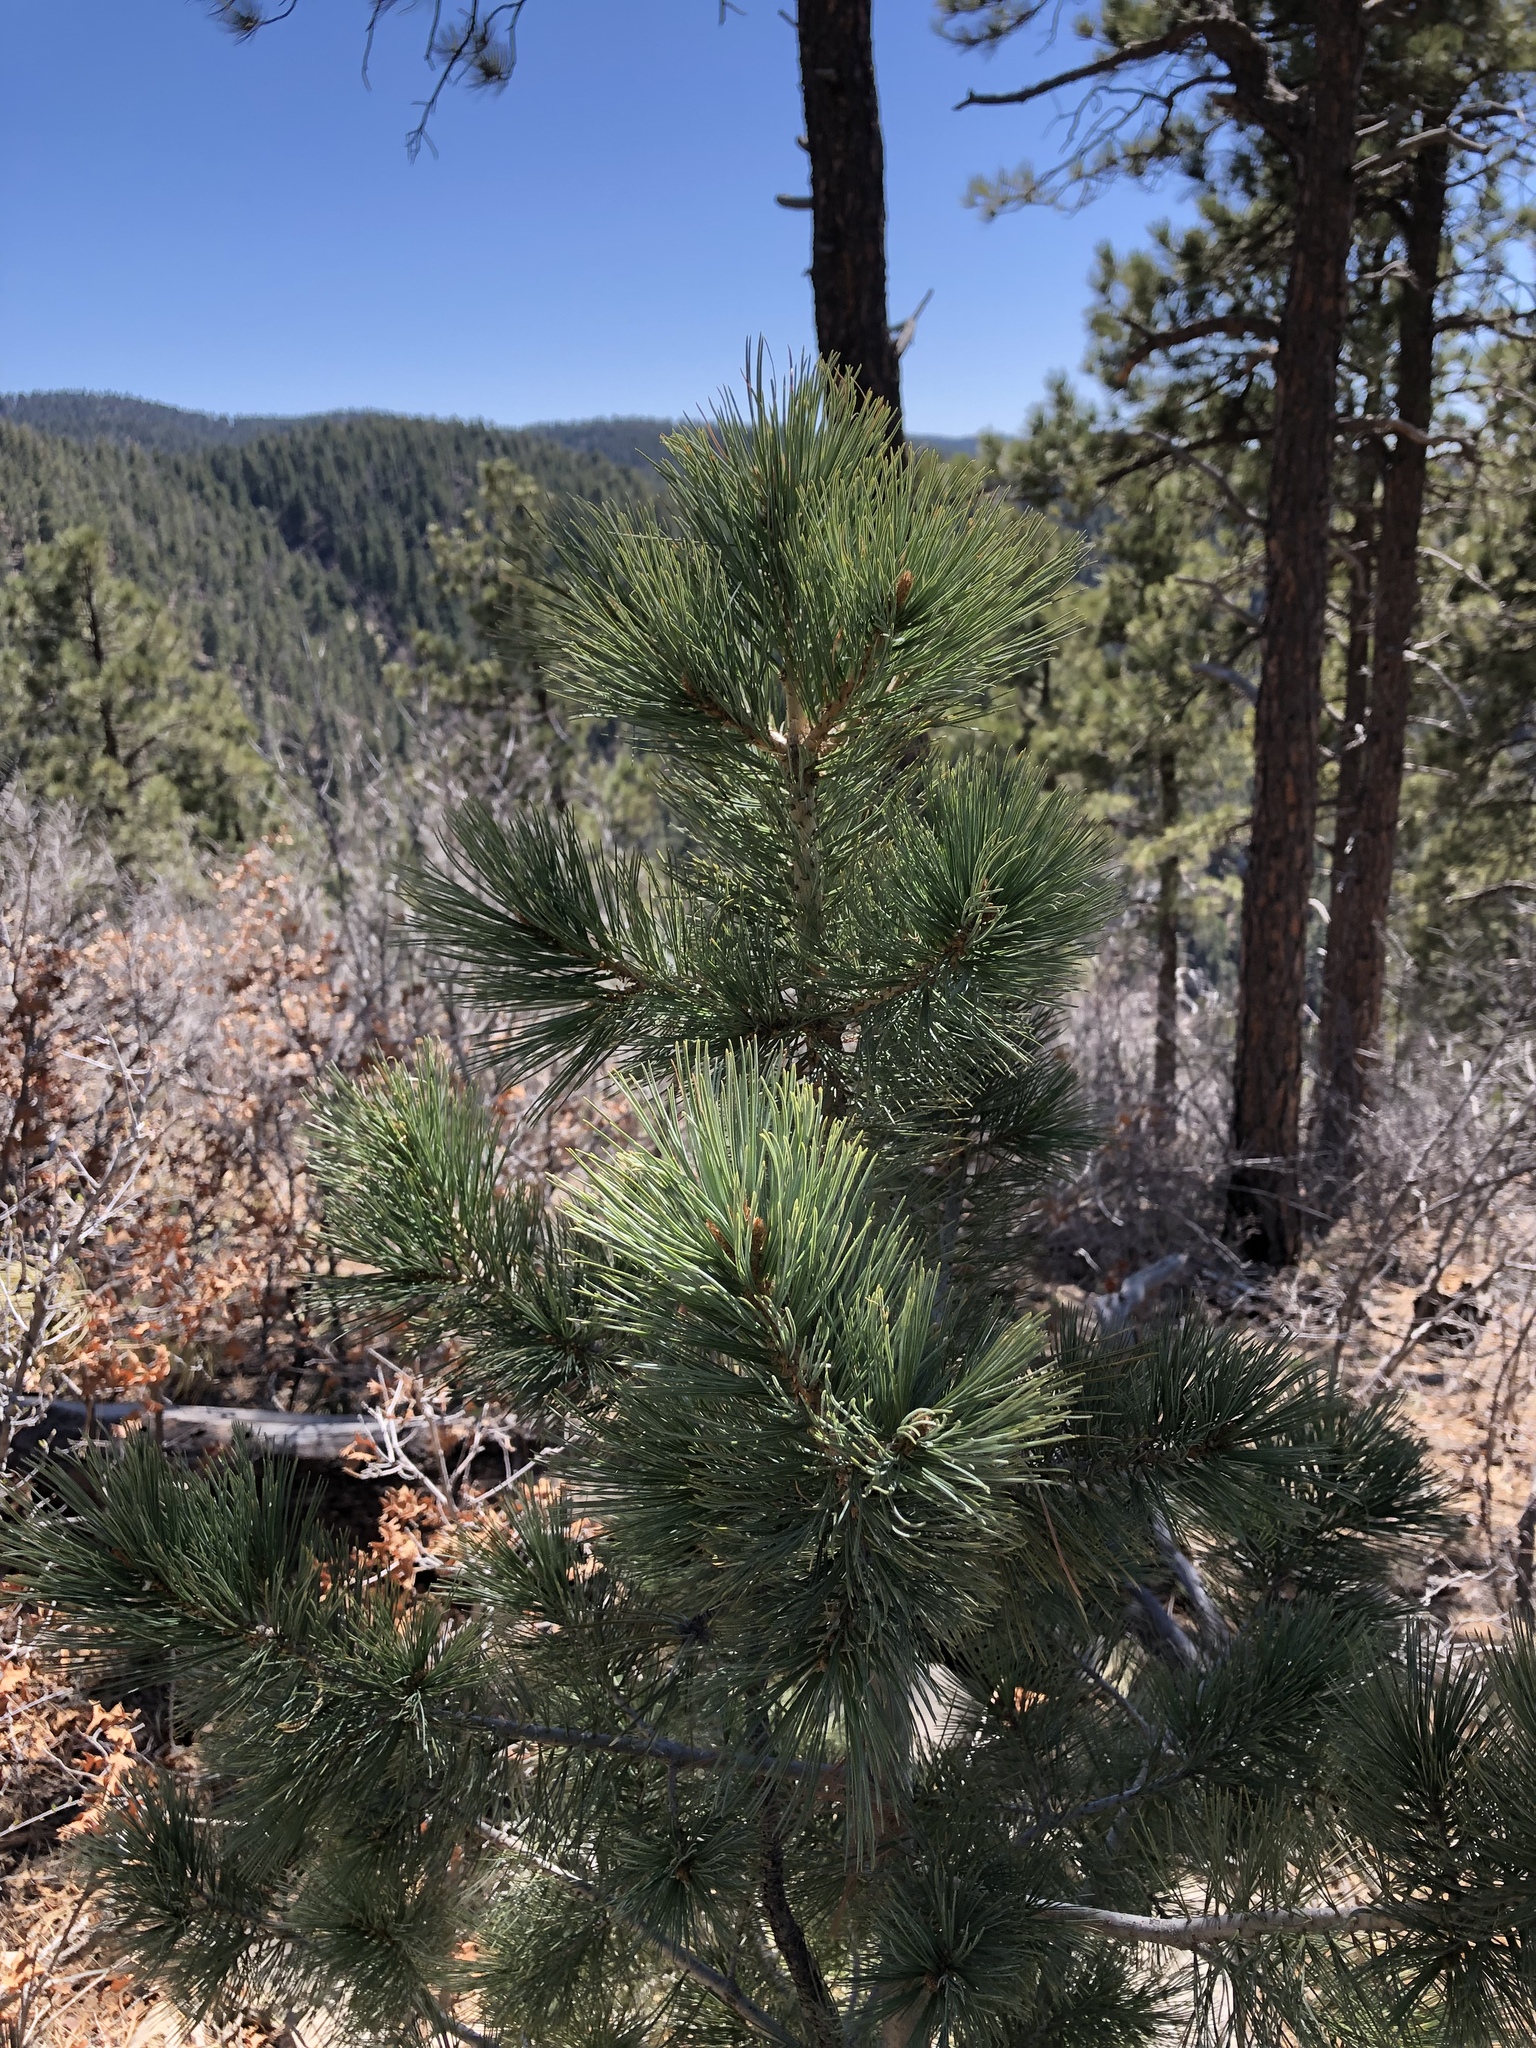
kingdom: Plantae
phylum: Tracheophyta
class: Pinopsida
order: Pinales
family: Pinaceae
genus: Pinus
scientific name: Pinus strobiformis
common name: Southwestern white pine
